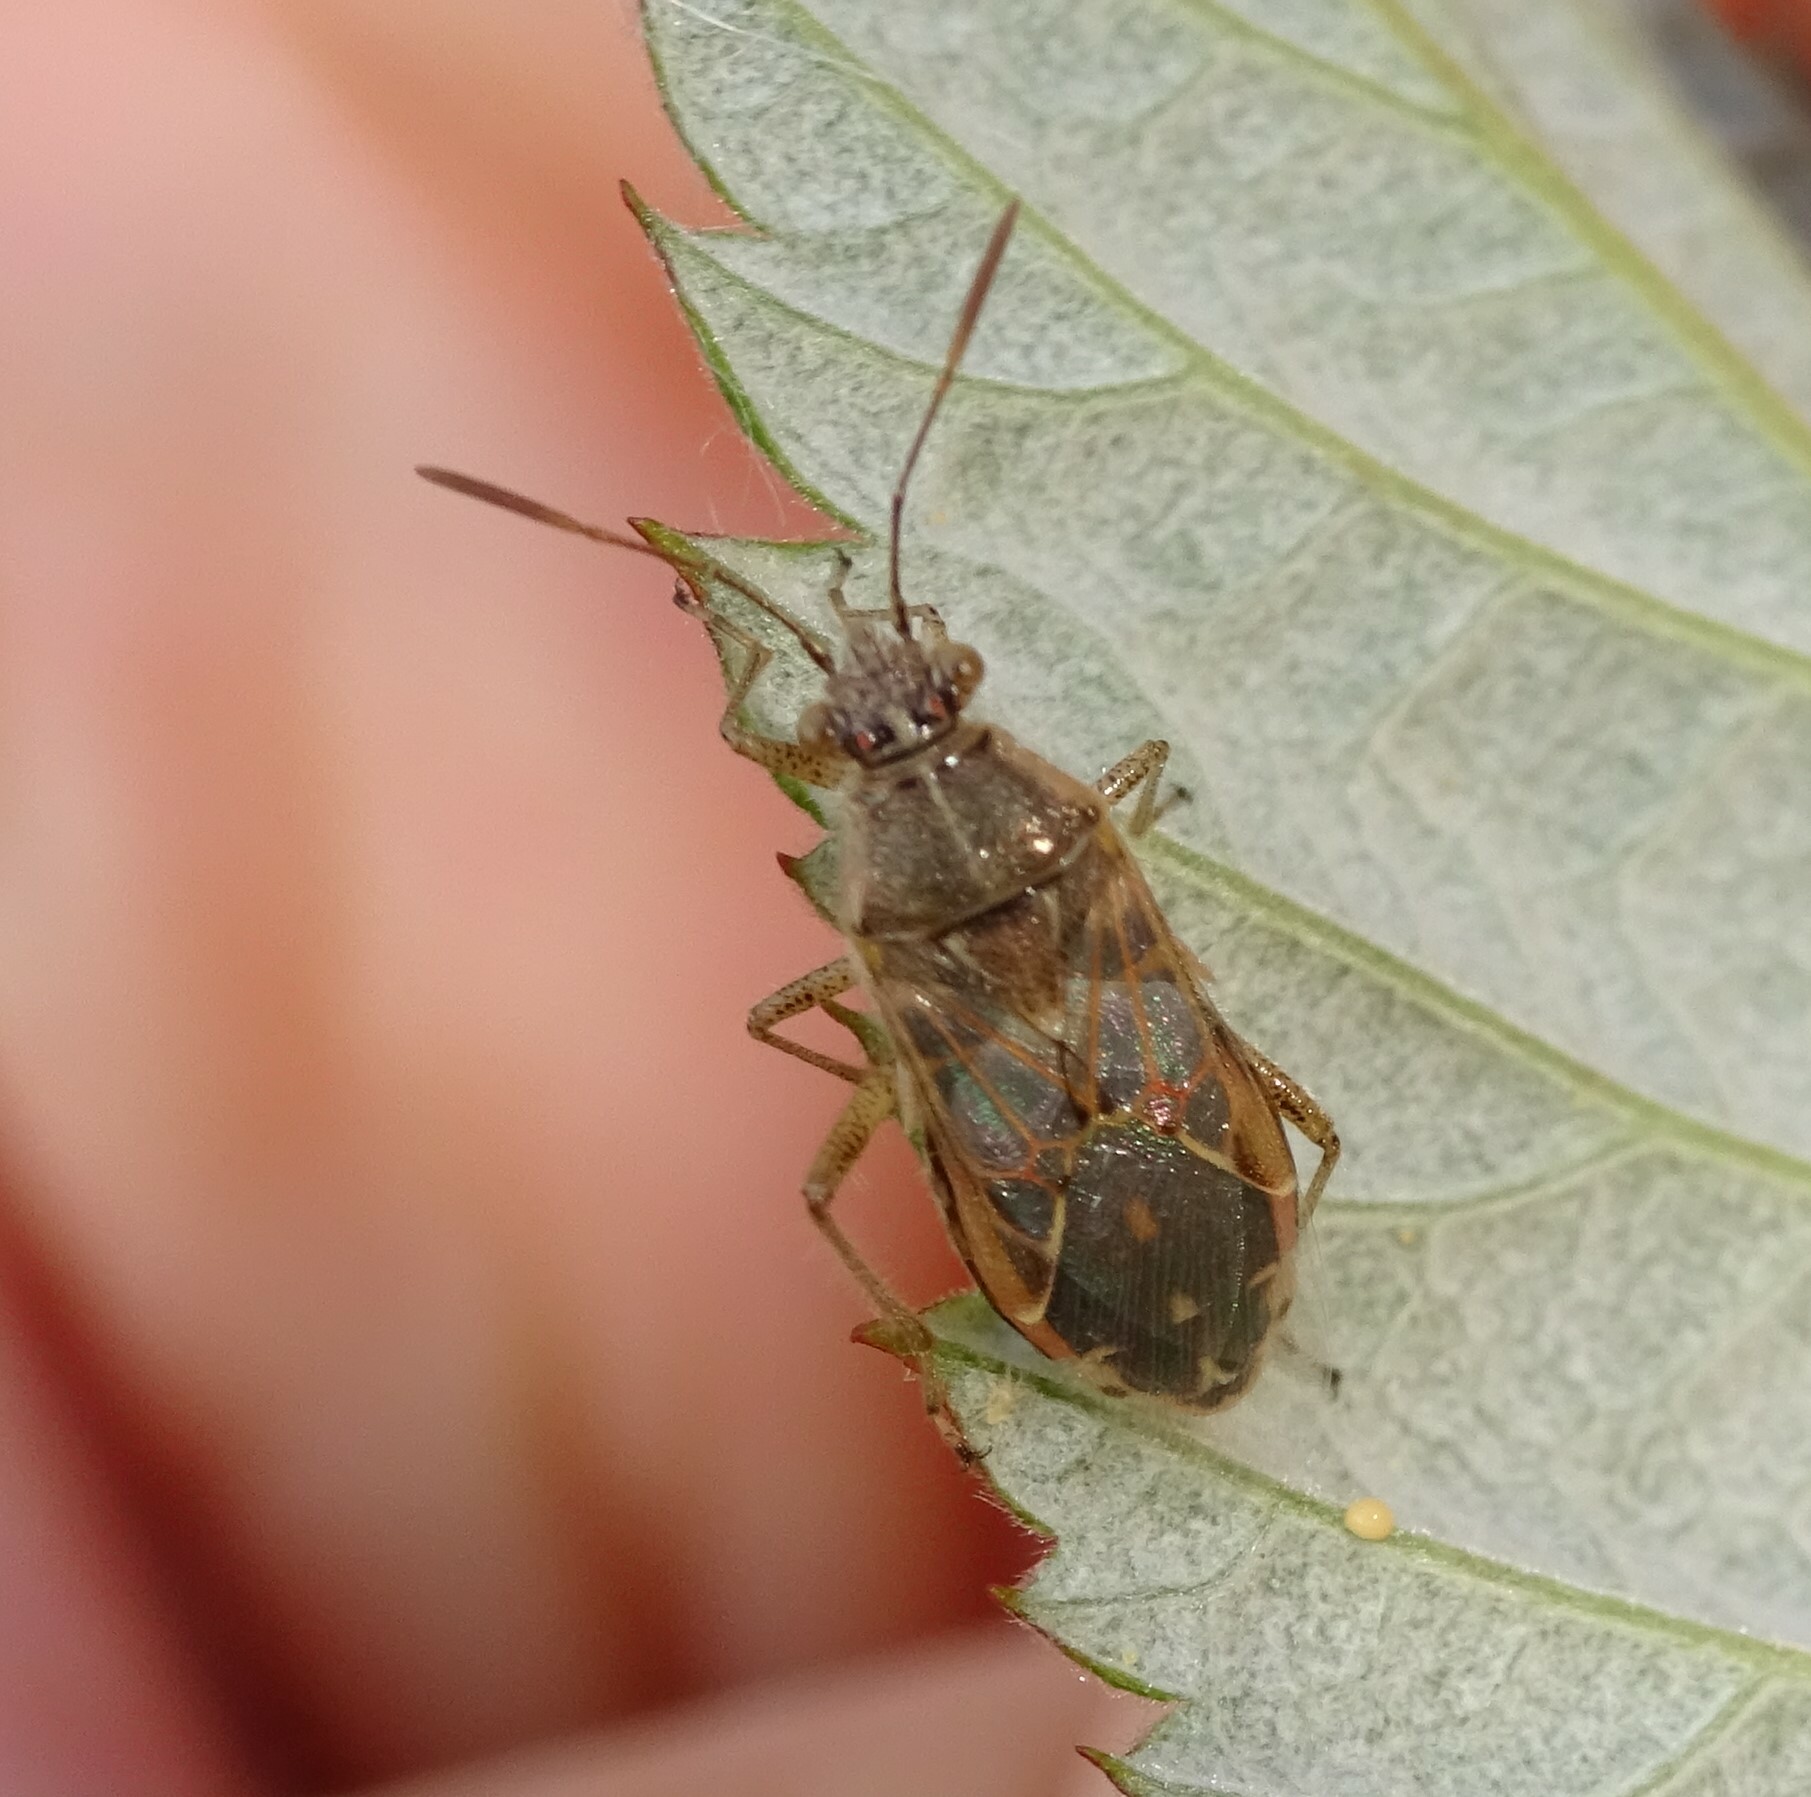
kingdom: Animalia
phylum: Arthropoda
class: Insecta
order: Hemiptera
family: Rhopalidae
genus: Liorhyssus
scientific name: Liorhyssus hyalinus
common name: Scentless plant bug
